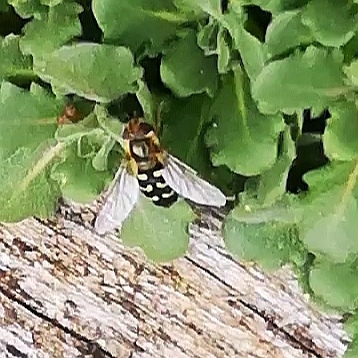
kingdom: Animalia
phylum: Arthropoda
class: Insecta
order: Diptera
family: Syrphidae
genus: Scaeva
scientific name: Scaeva pyrastri
